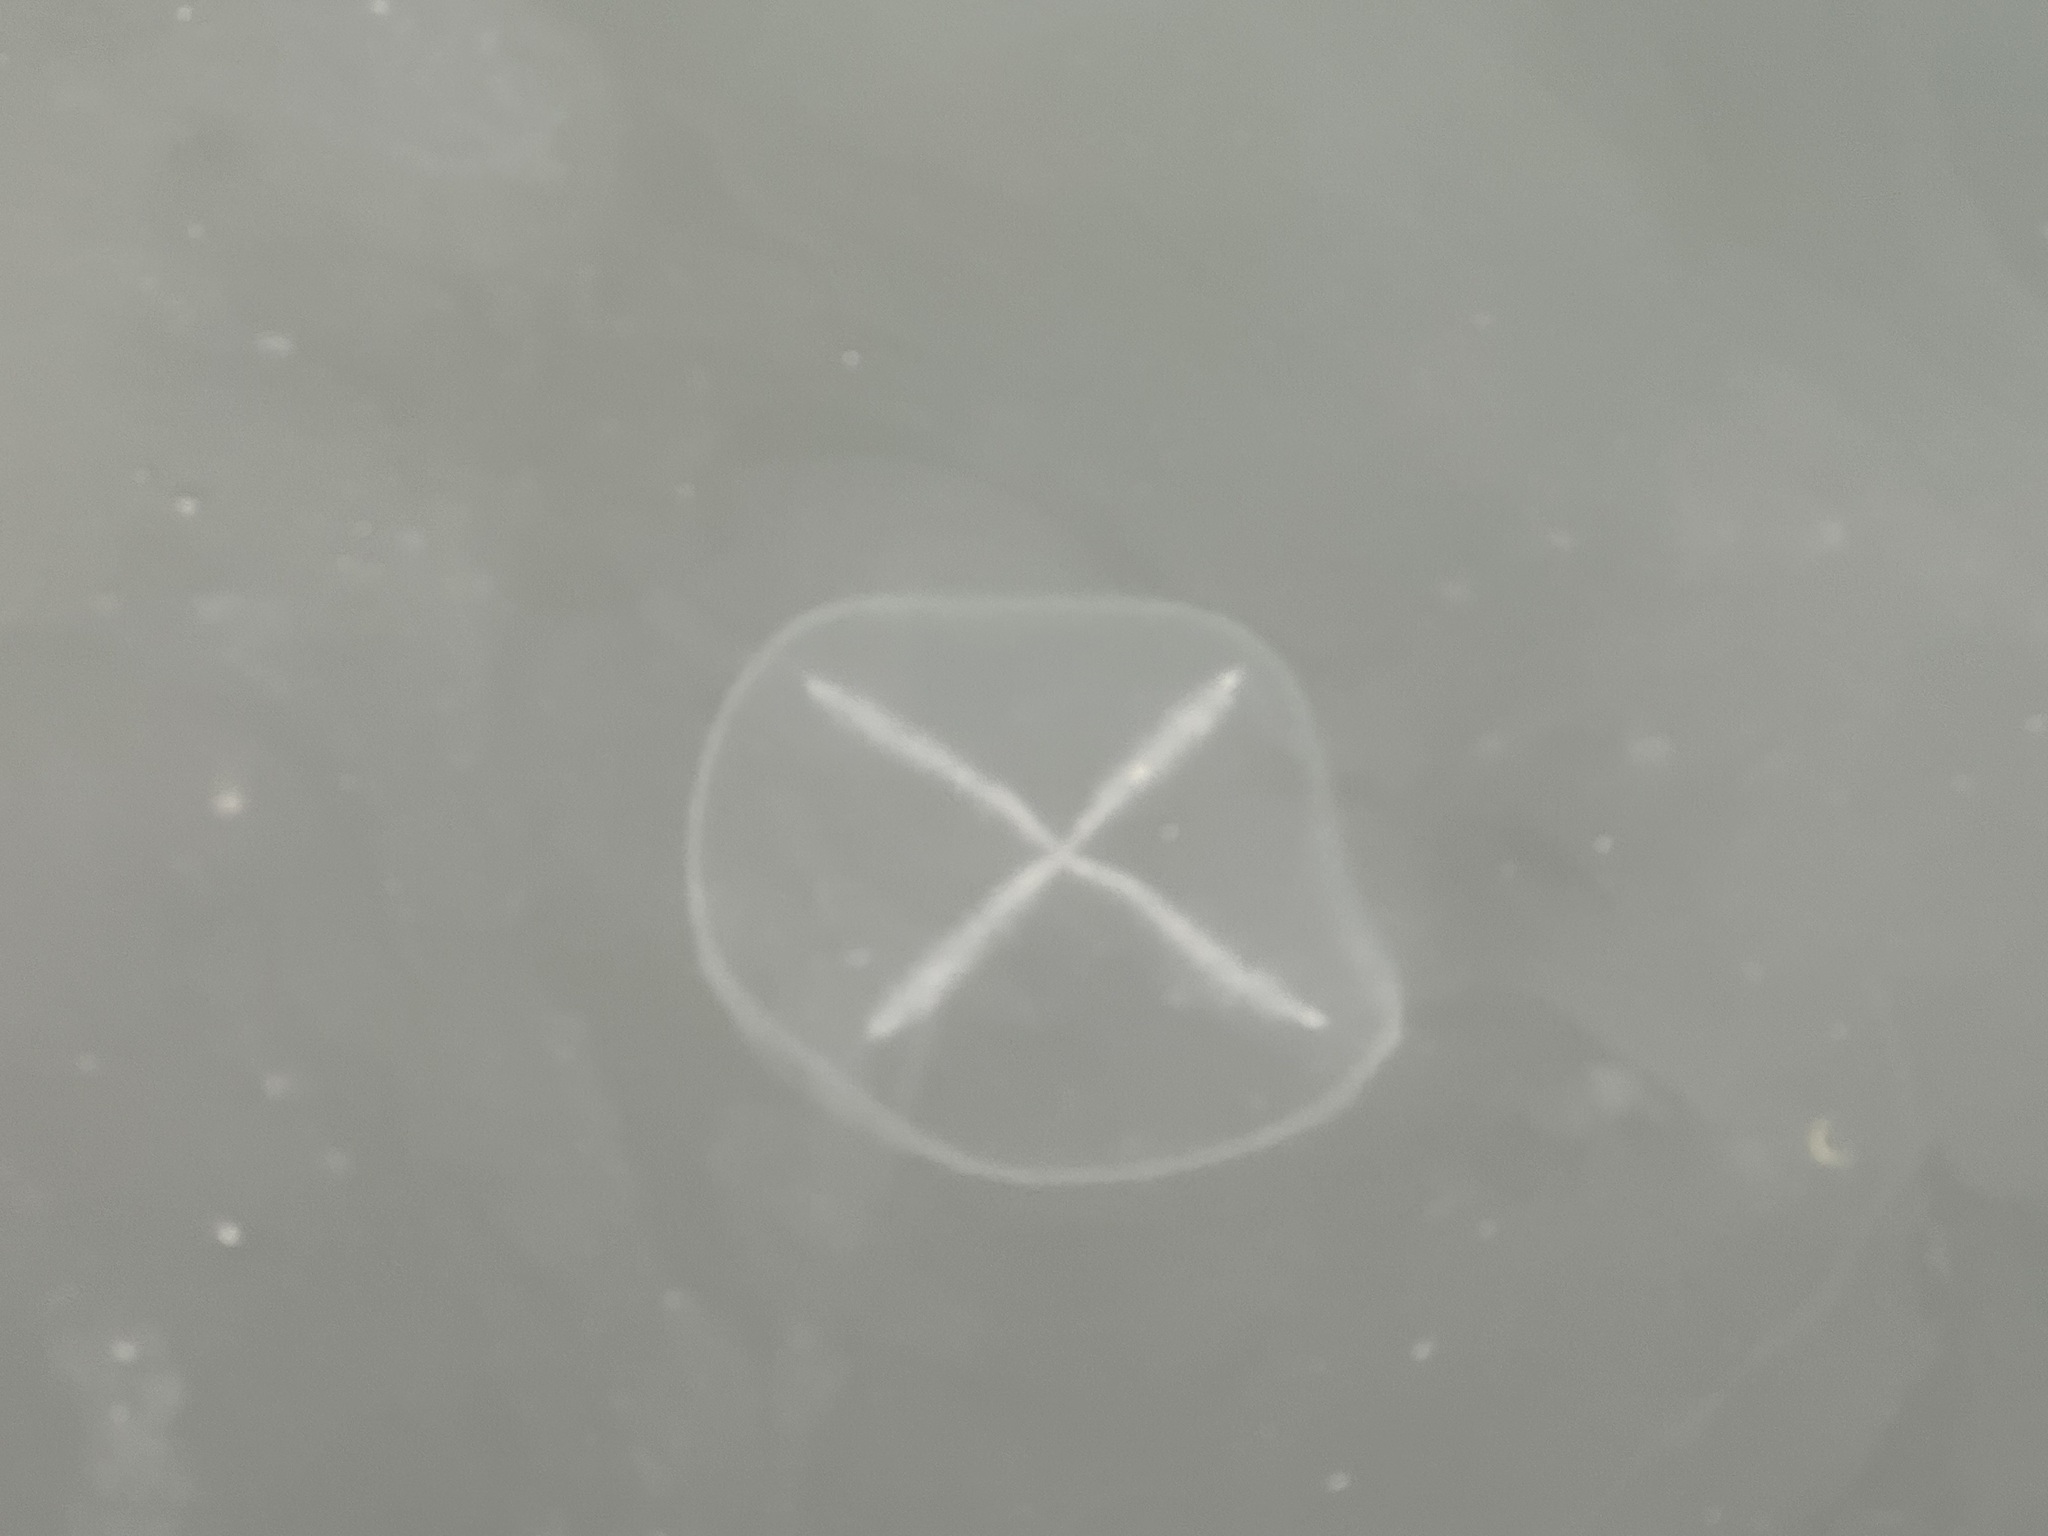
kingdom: Animalia
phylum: Cnidaria
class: Hydrozoa
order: Leptothecata
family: Laodiceidae
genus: Staurostoma
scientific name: Staurostoma mertensii
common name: Whitecross jellyfish
